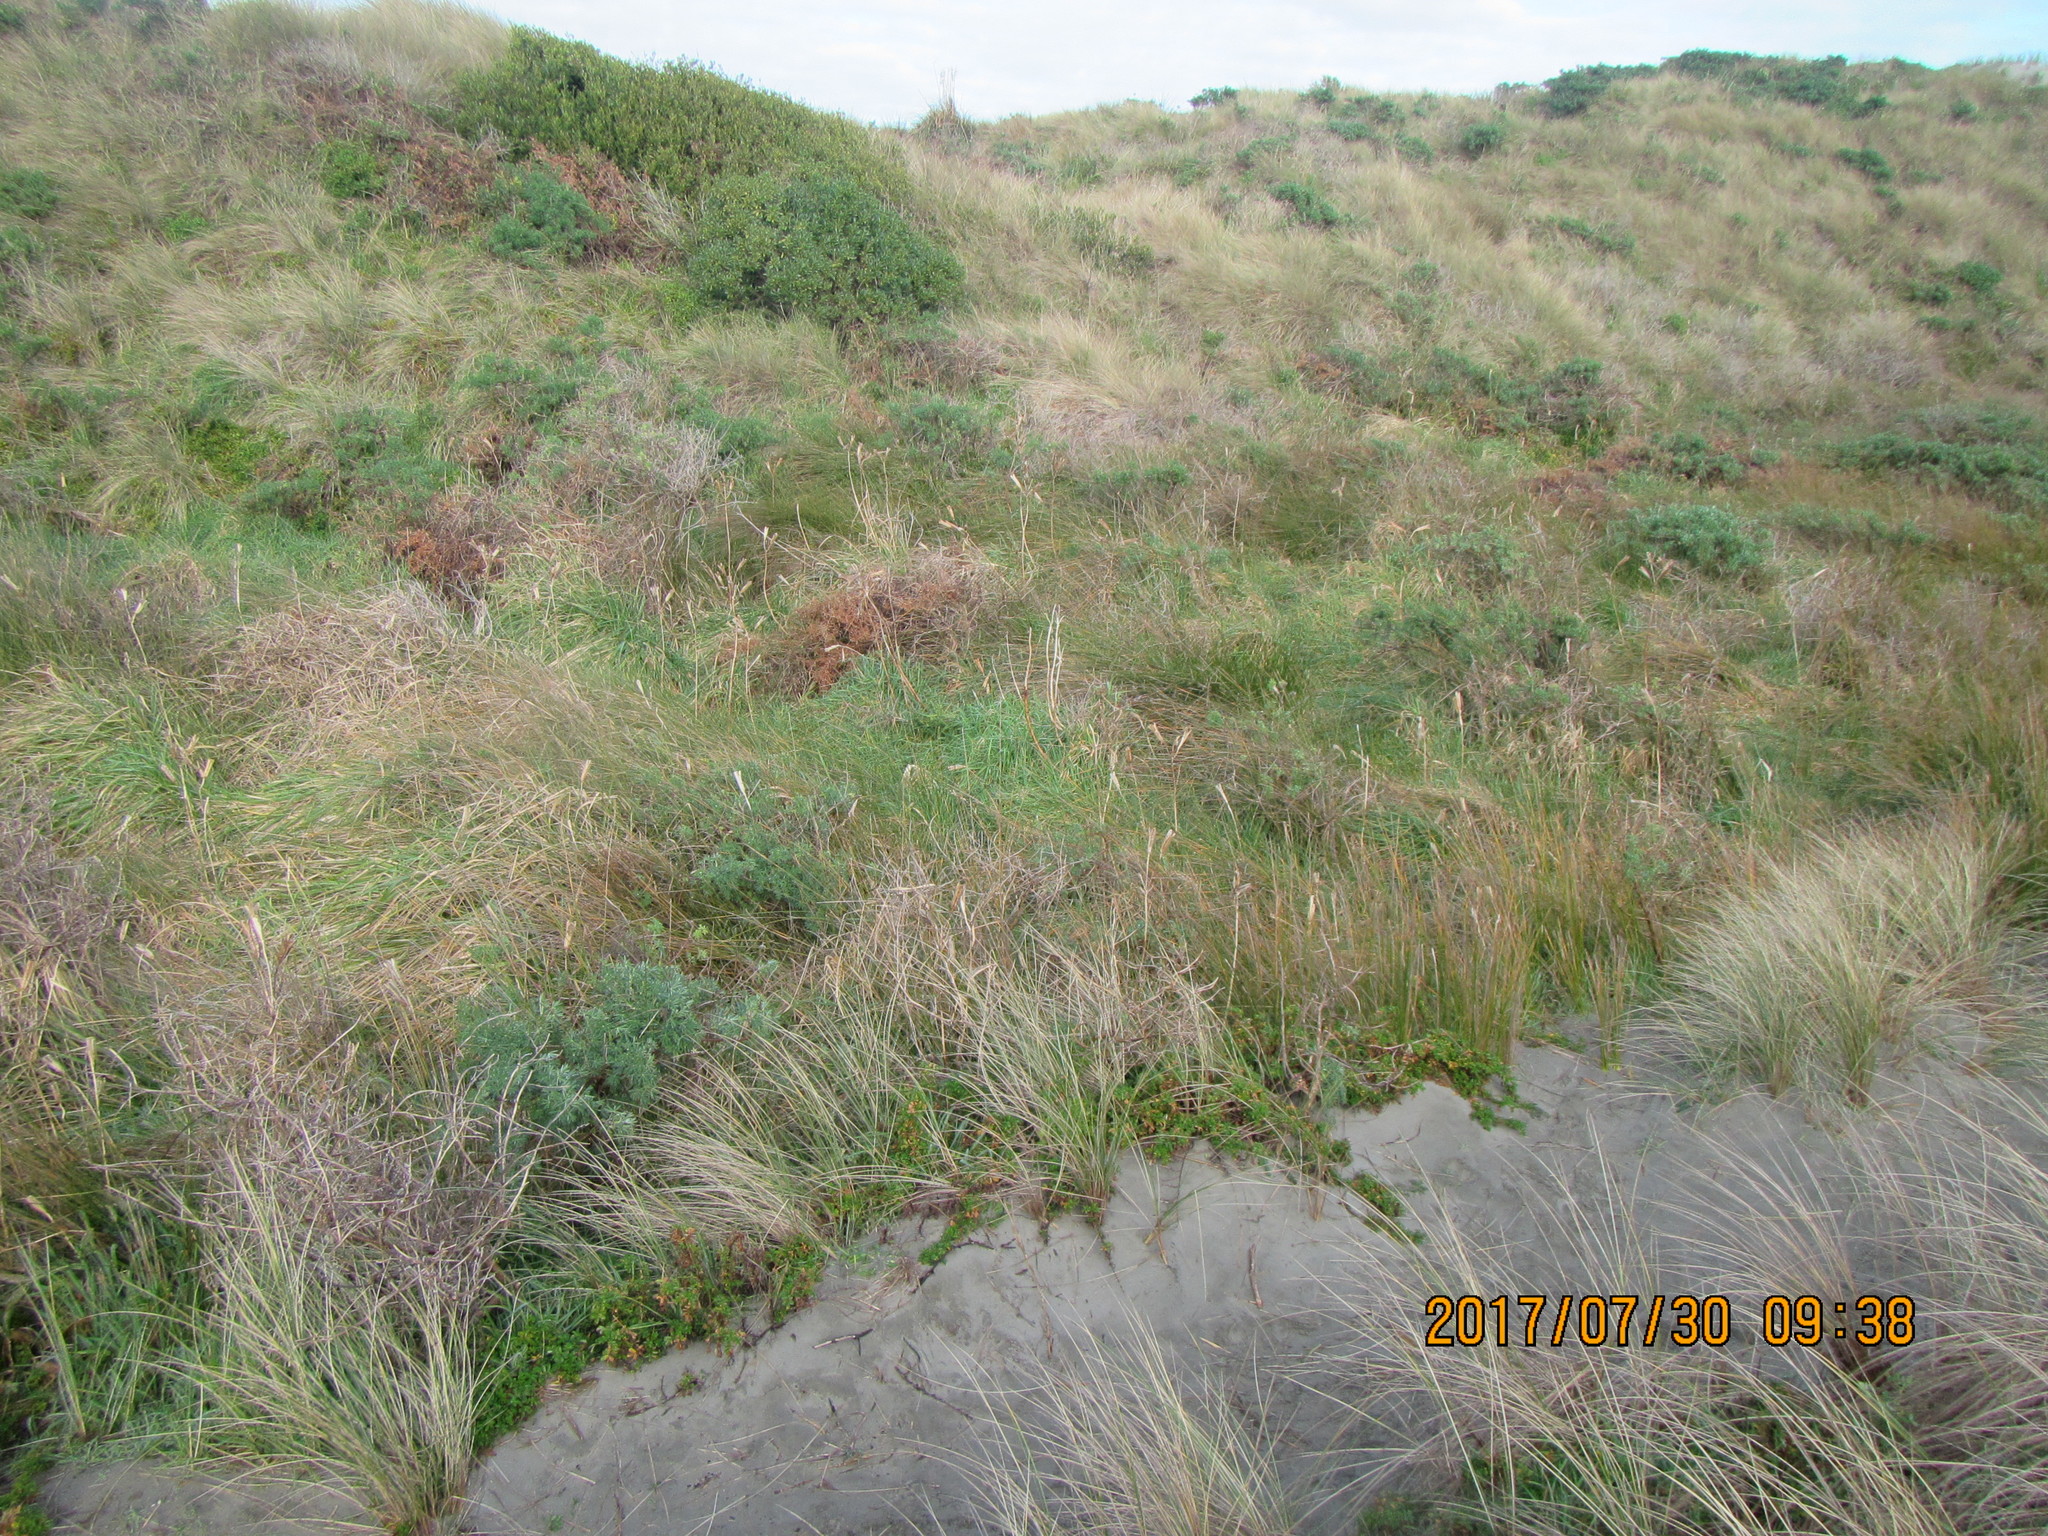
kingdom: Plantae
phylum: Tracheophyta
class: Liliopsida
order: Liliales
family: Liliaceae
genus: Lilium
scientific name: Lilium formosanum
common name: Formosa lily
